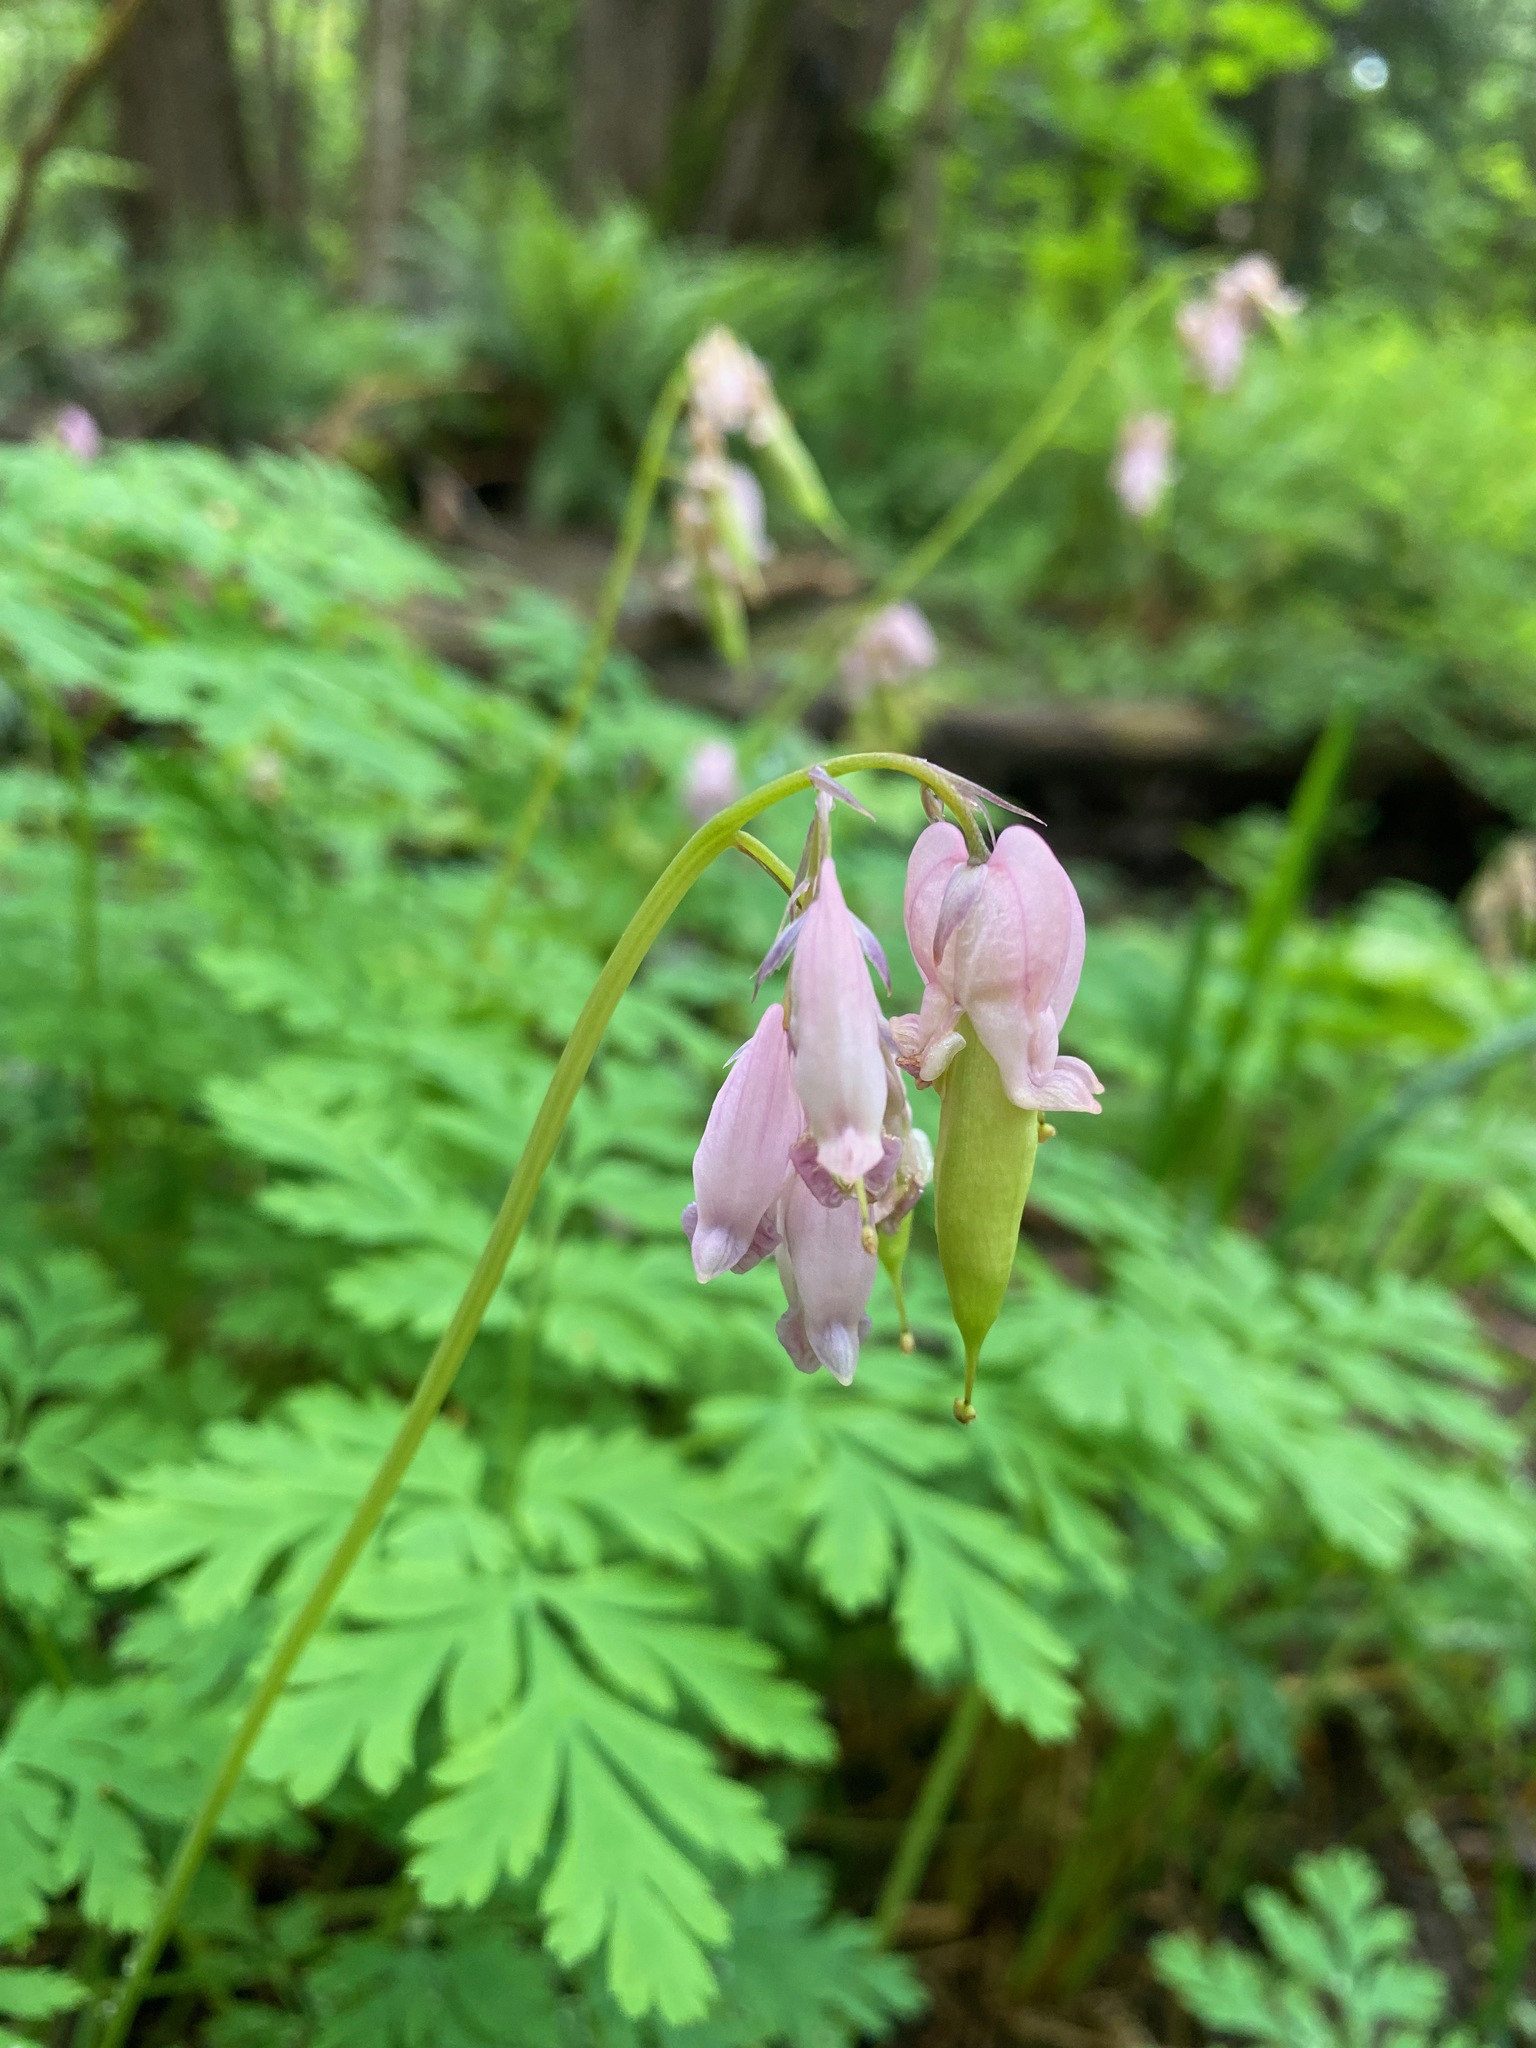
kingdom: Plantae
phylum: Tracheophyta
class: Magnoliopsida
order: Ranunculales
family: Papaveraceae
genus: Dicentra
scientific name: Dicentra formosa
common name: Bleeding-heart
